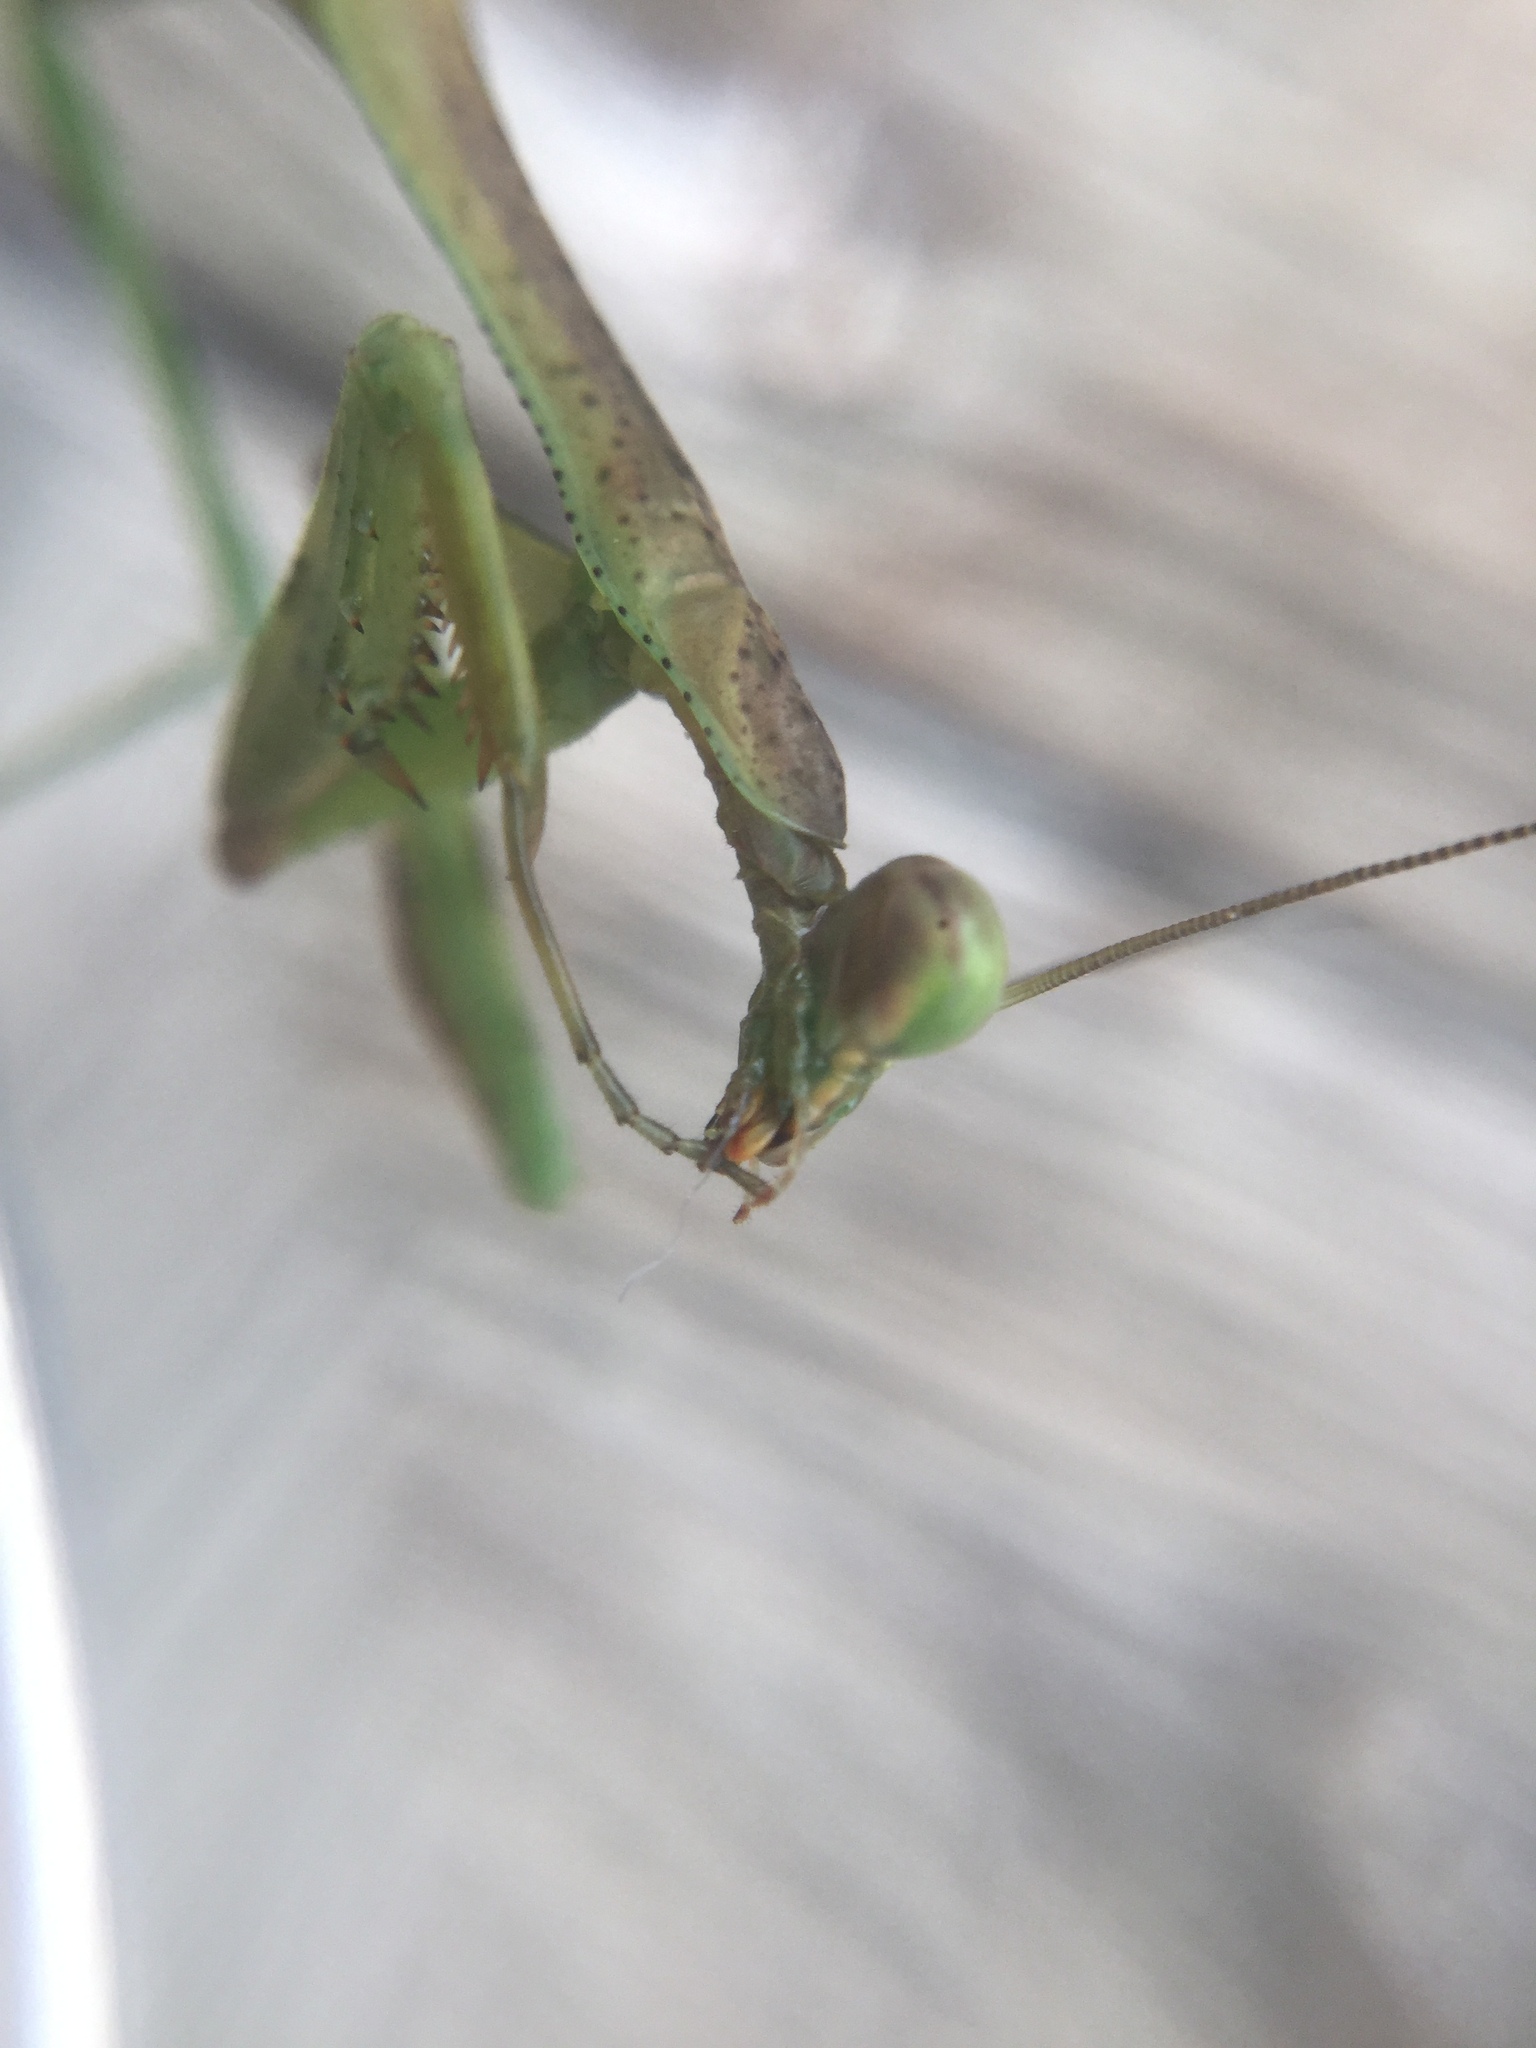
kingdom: Animalia
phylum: Arthropoda
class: Insecta
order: Mantodea
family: Mantidae
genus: Stagmomantis
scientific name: Stagmomantis carolina
